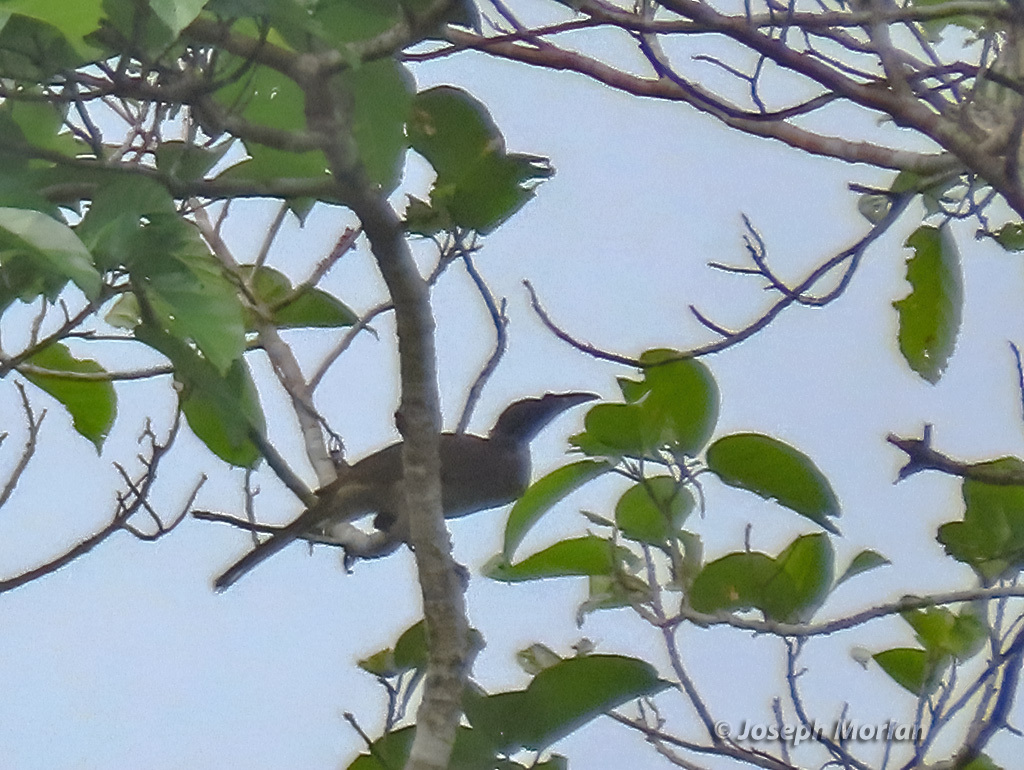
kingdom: Animalia
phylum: Chordata
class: Aves
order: Passeriformes
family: Meliphagidae
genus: Philemon
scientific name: Philemon buceroides
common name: Helmeted friarbird
